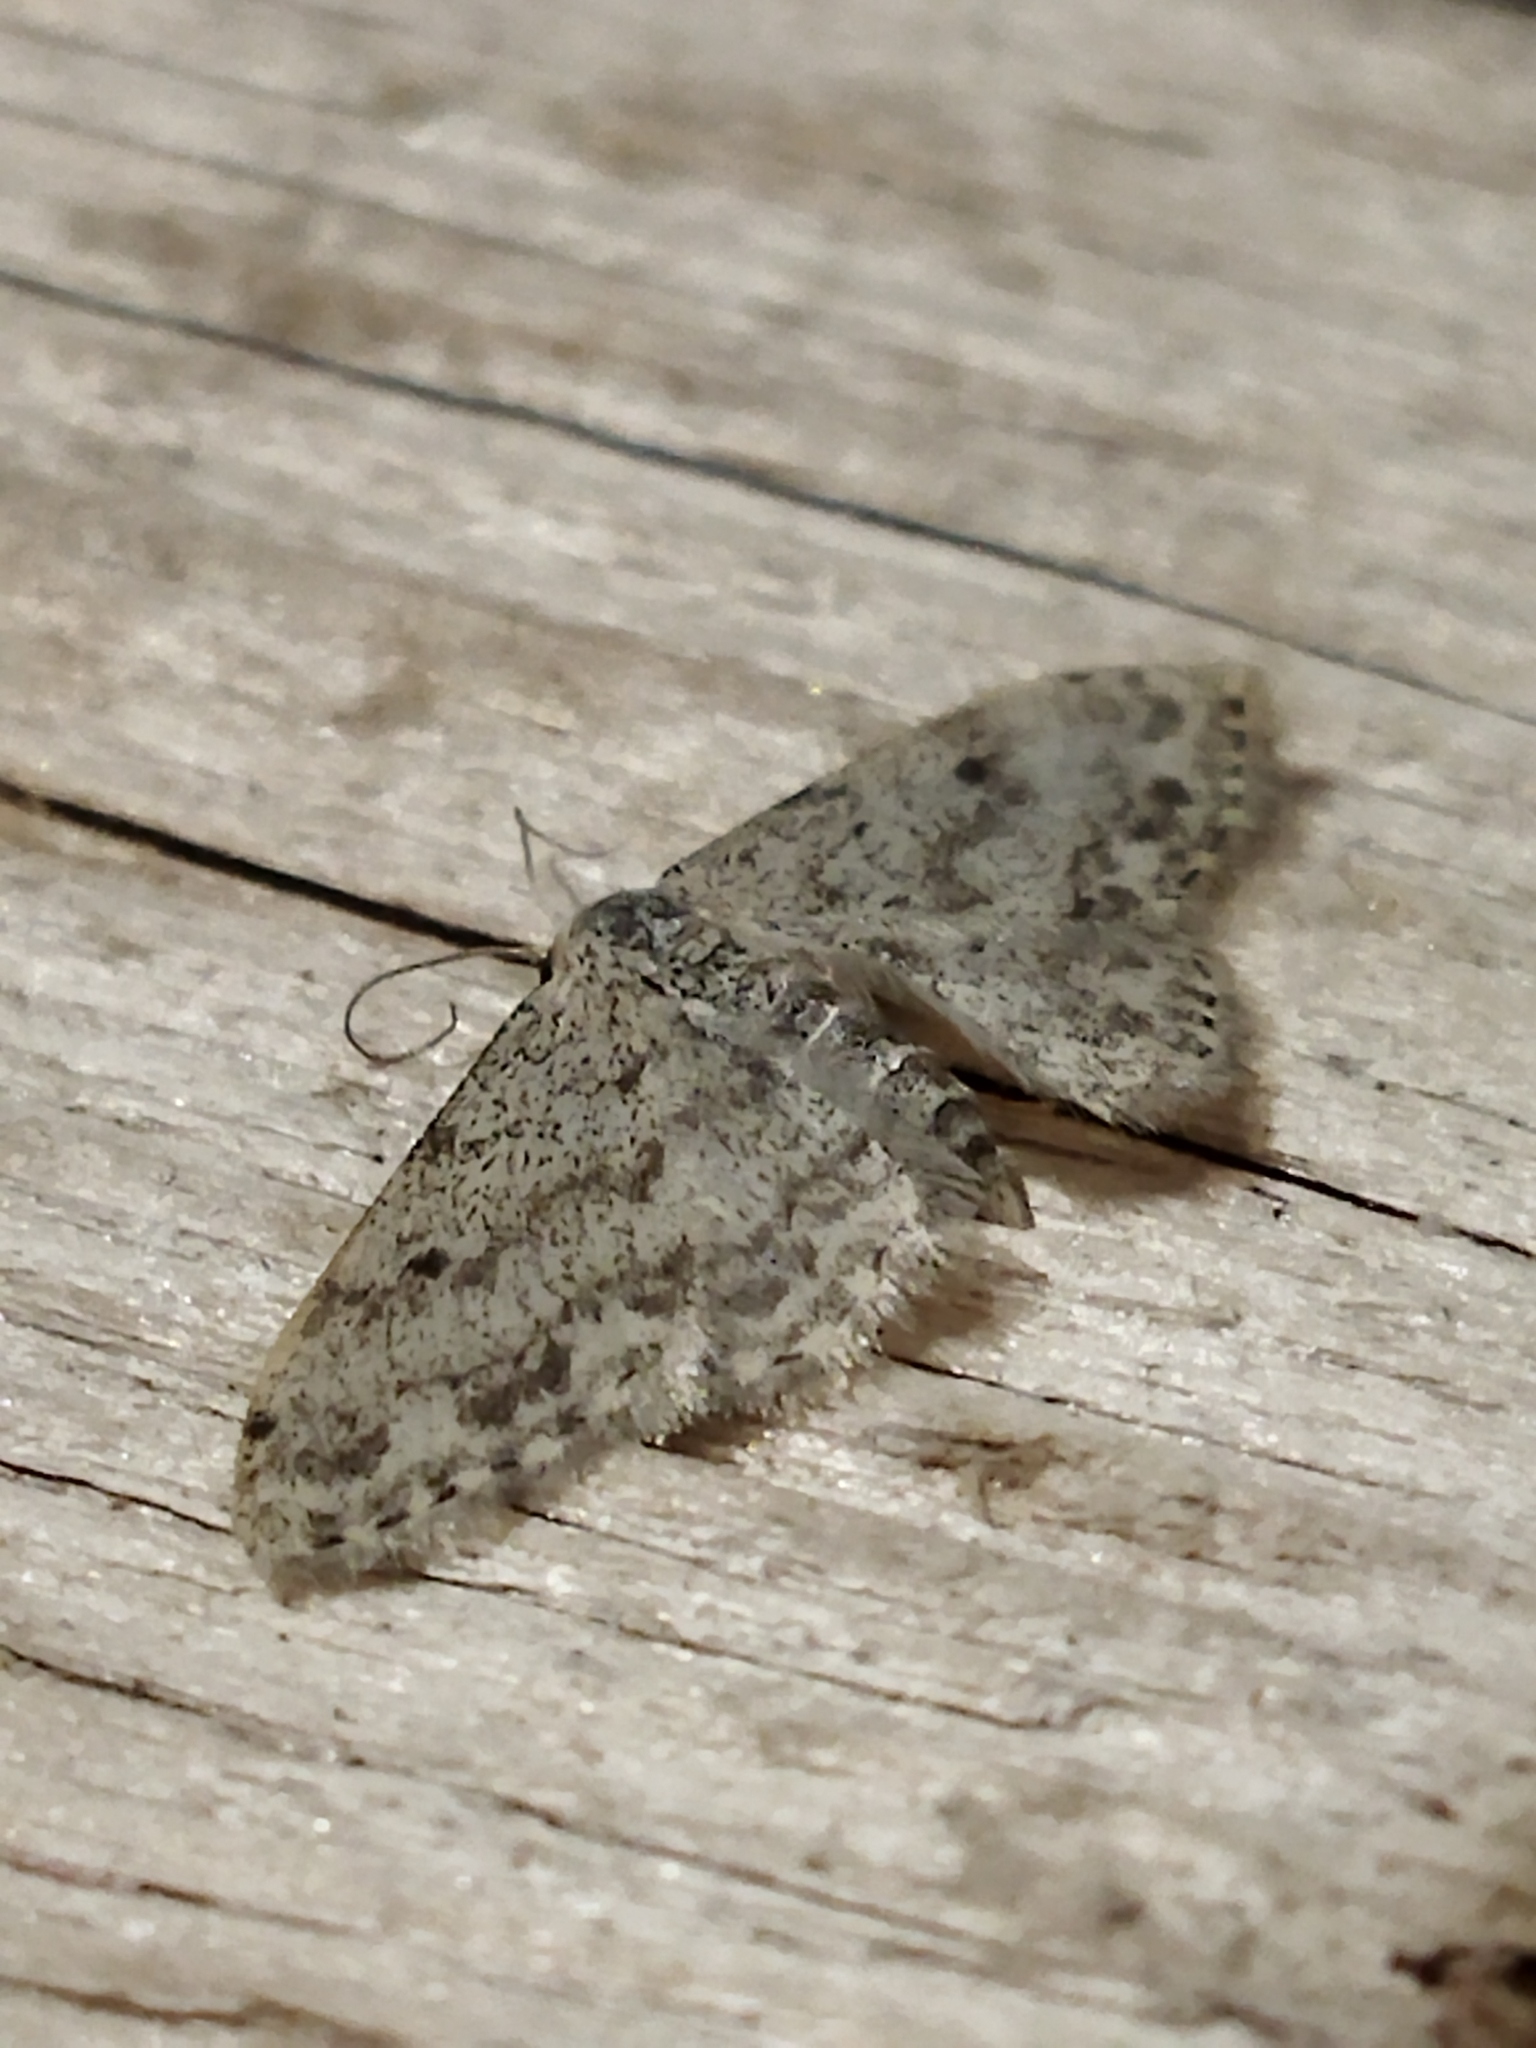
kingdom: Animalia
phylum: Arthropoda
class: Insecta
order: Lepidoptera
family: Geometridae
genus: Idaea
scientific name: Idaea camparia
